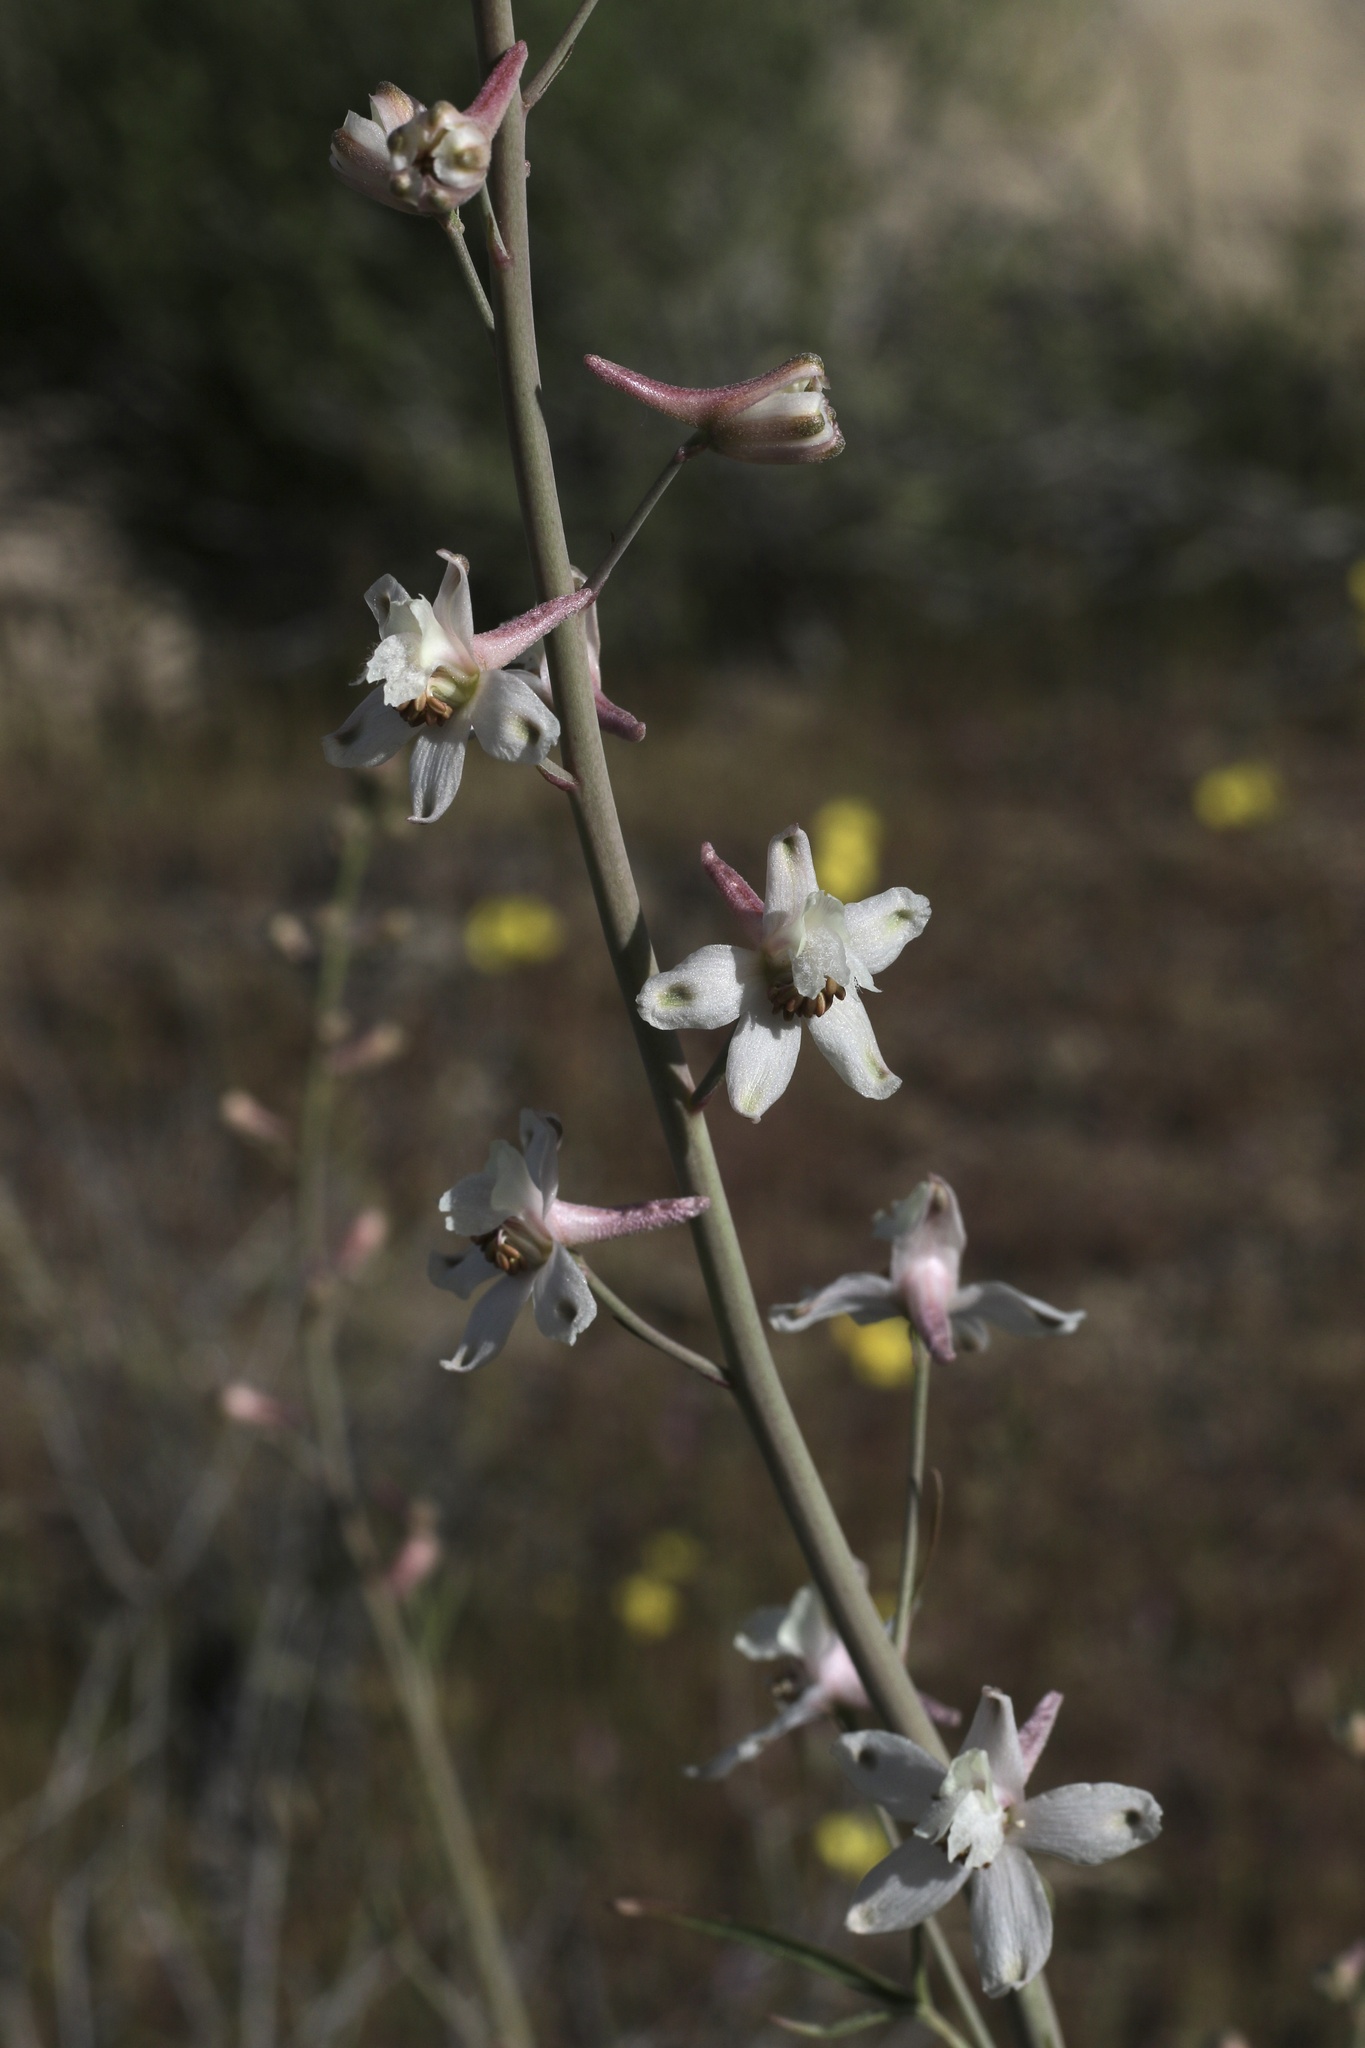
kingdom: Plantae
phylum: Tracheophyta
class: Magnoliopsida
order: Ranunculales
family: Ranunculaceae
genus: Delphinium
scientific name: Delphinium gypsophilum
